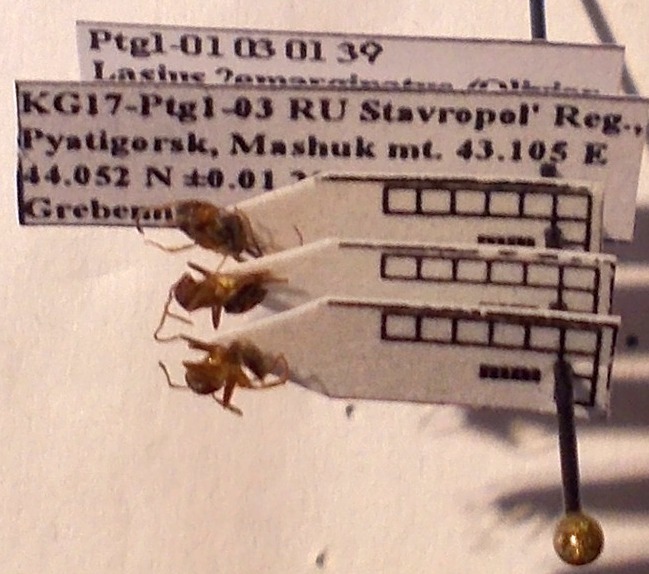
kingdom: Animalia
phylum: Arthropoda
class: Insecta
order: Hymenoptera
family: Formicidae
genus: Lasius
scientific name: Lasius emarginatus
